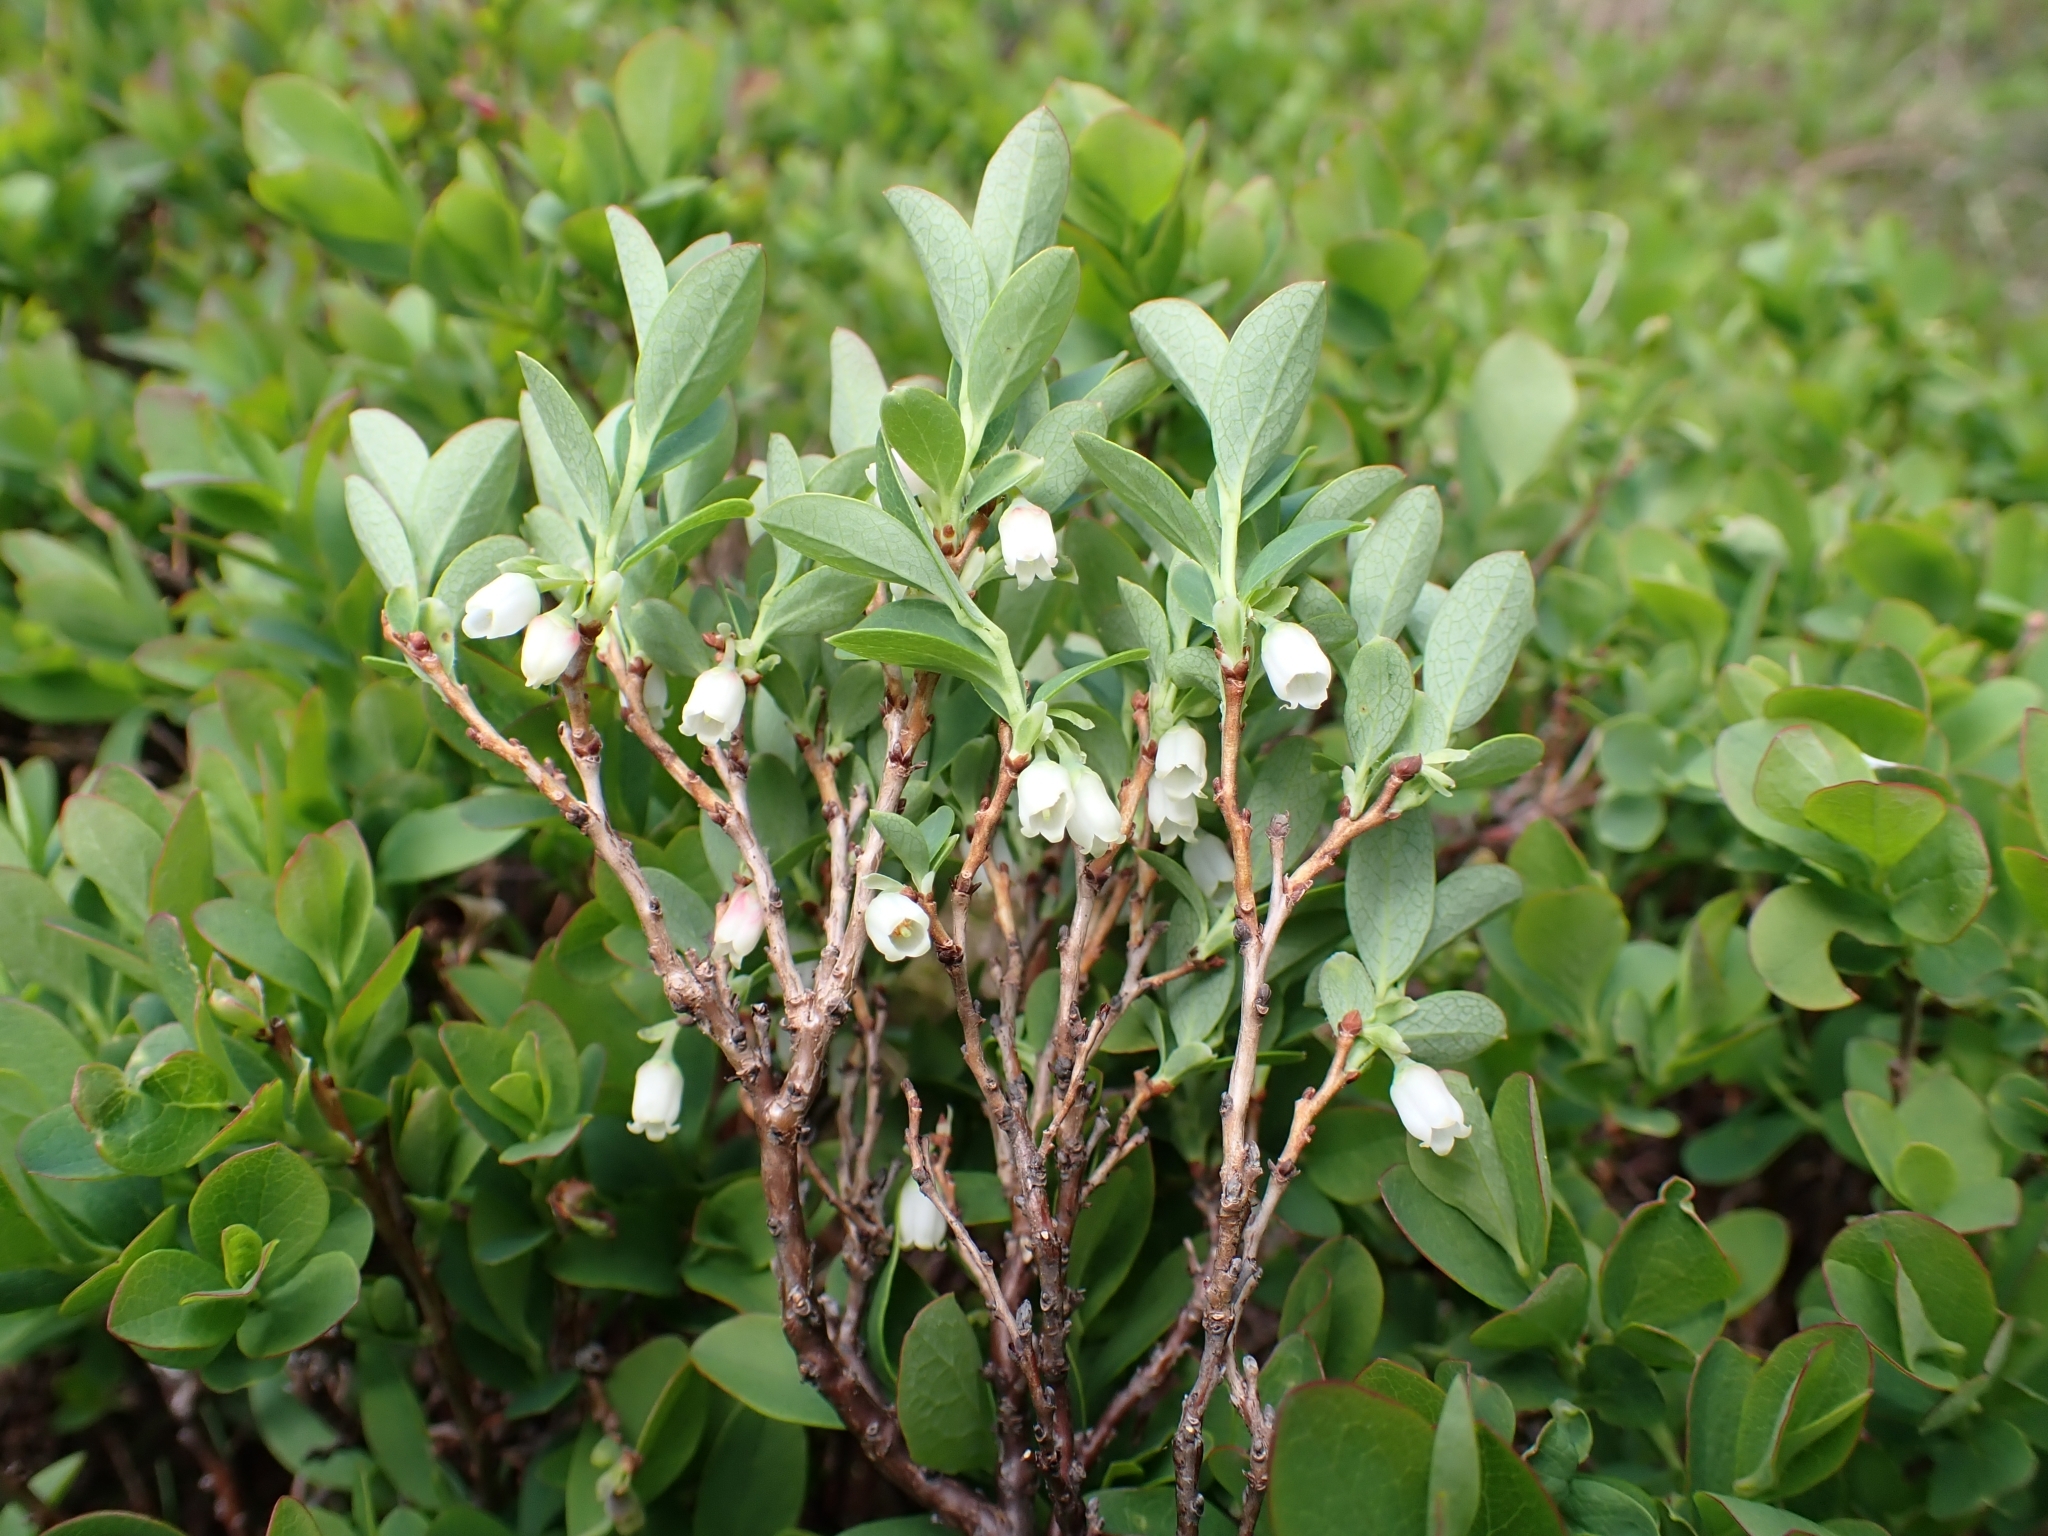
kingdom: Plantae
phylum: Tracheophyta
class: Magnoliopsida
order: Ericales
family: Ericaceae
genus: Vaccinium
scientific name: Vaccinium uliginosum
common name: Bog bilberry
